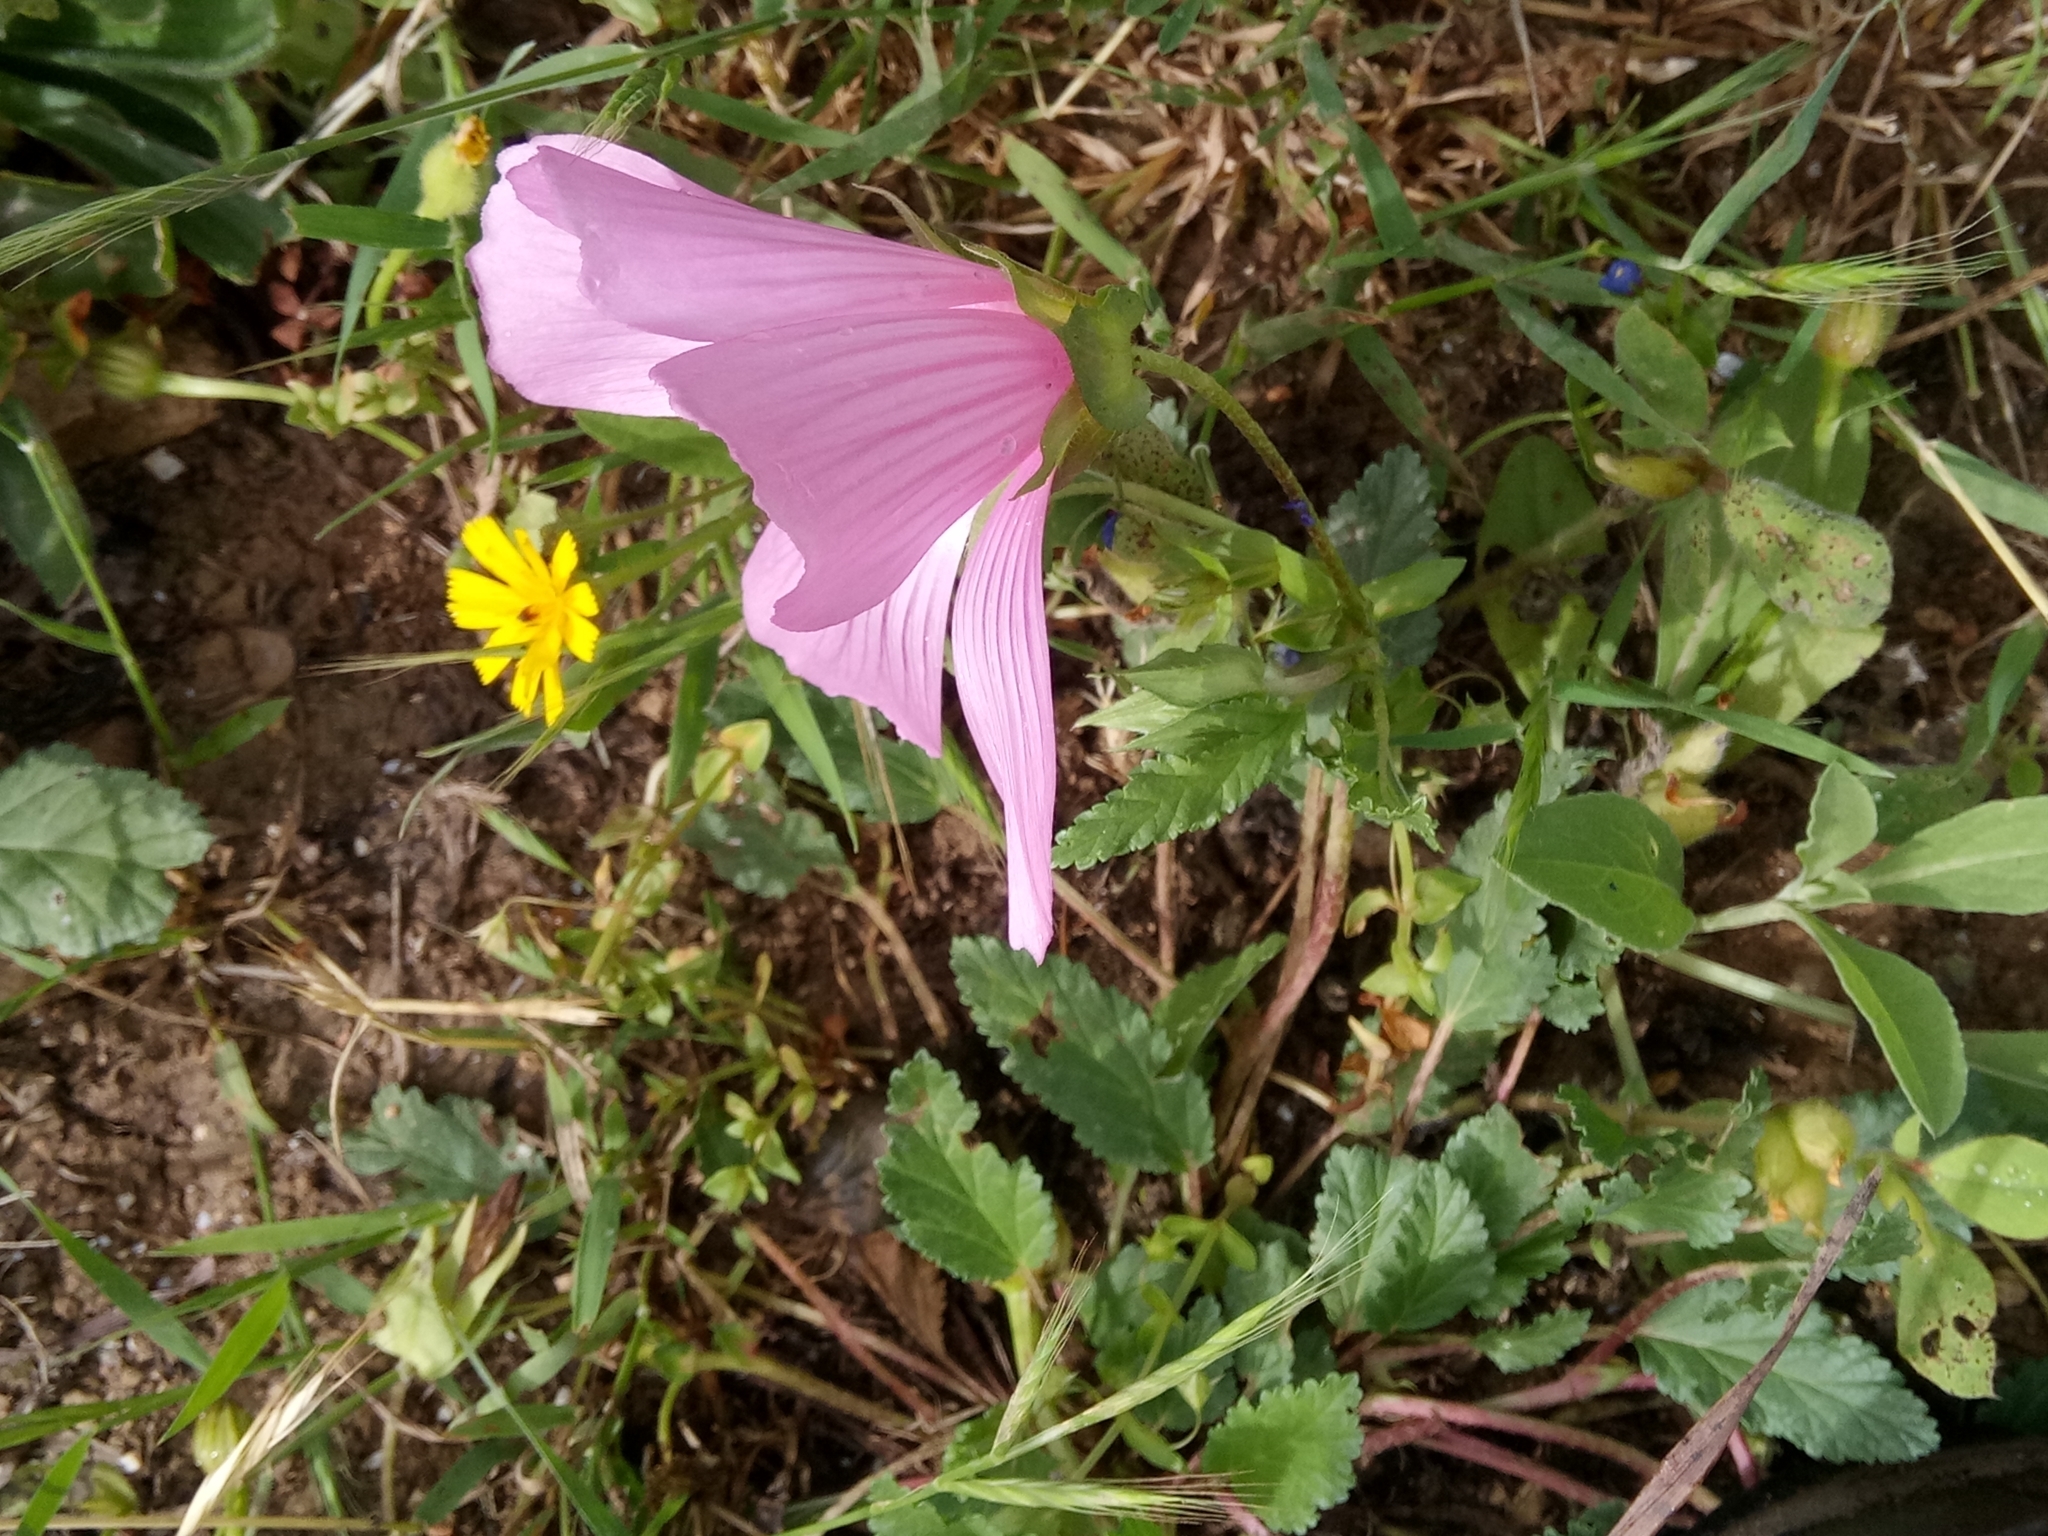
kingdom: Plantae
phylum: Tracheophyta
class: Magnoliopsida
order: Malvales
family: Malvaceae
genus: Malope
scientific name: Malope malacoides
